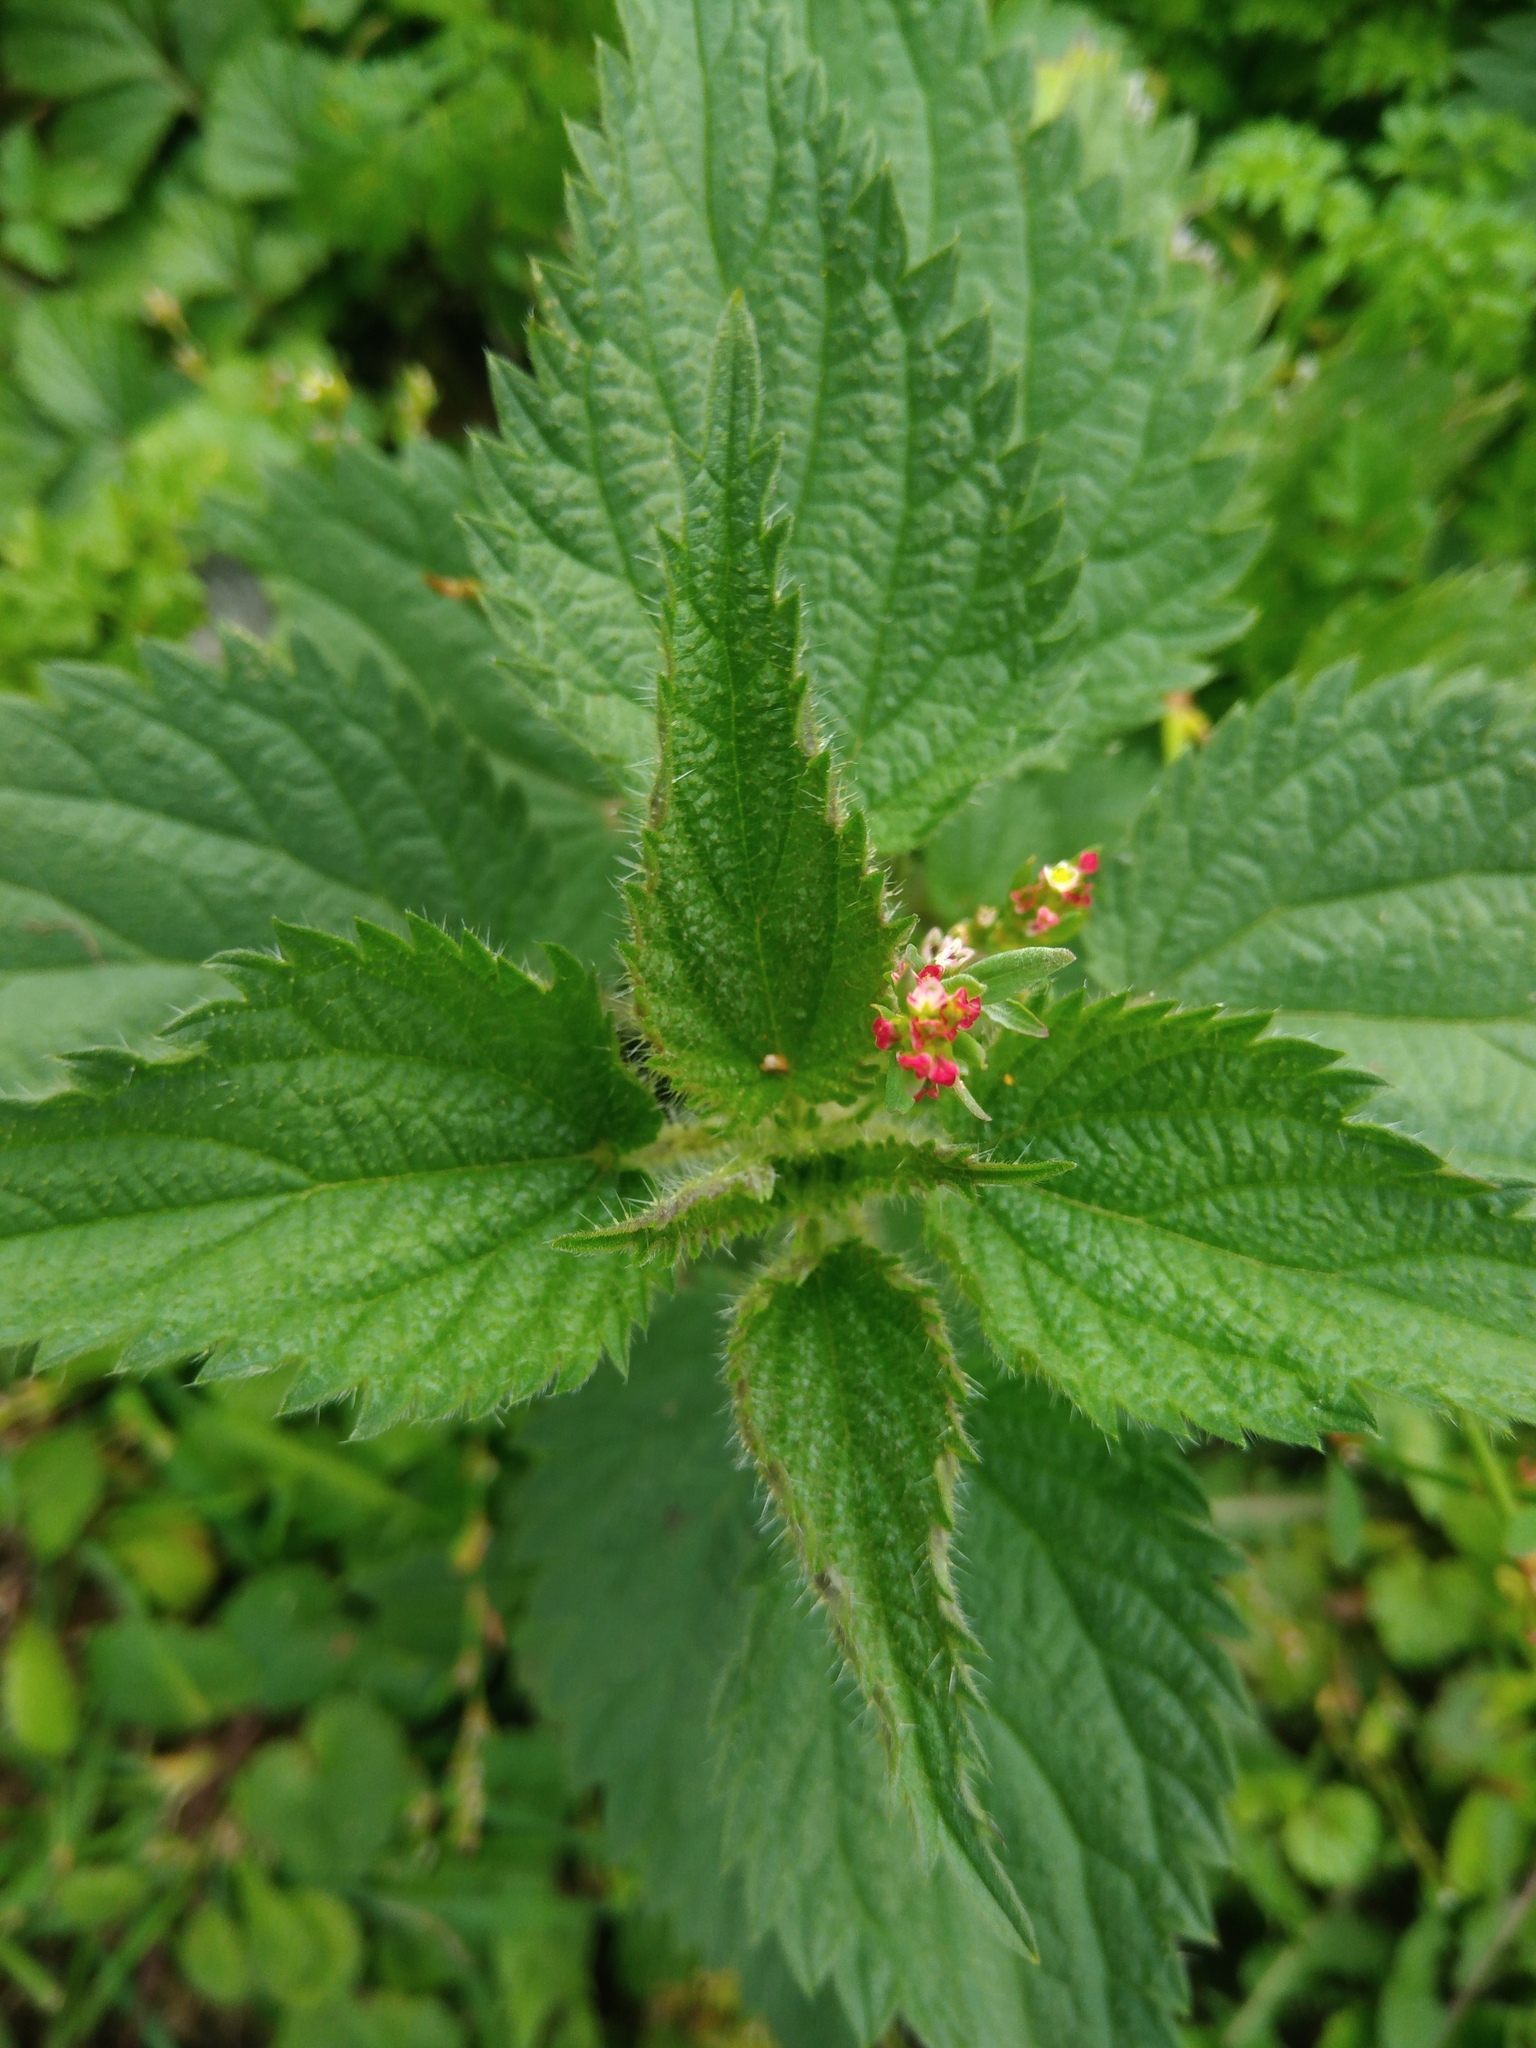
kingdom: Plantae
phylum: Tracheophyta
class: Magnoliopsida
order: Rosales
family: Urticaceae
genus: Urtica
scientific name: Urtica dioica
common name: Common nettle
